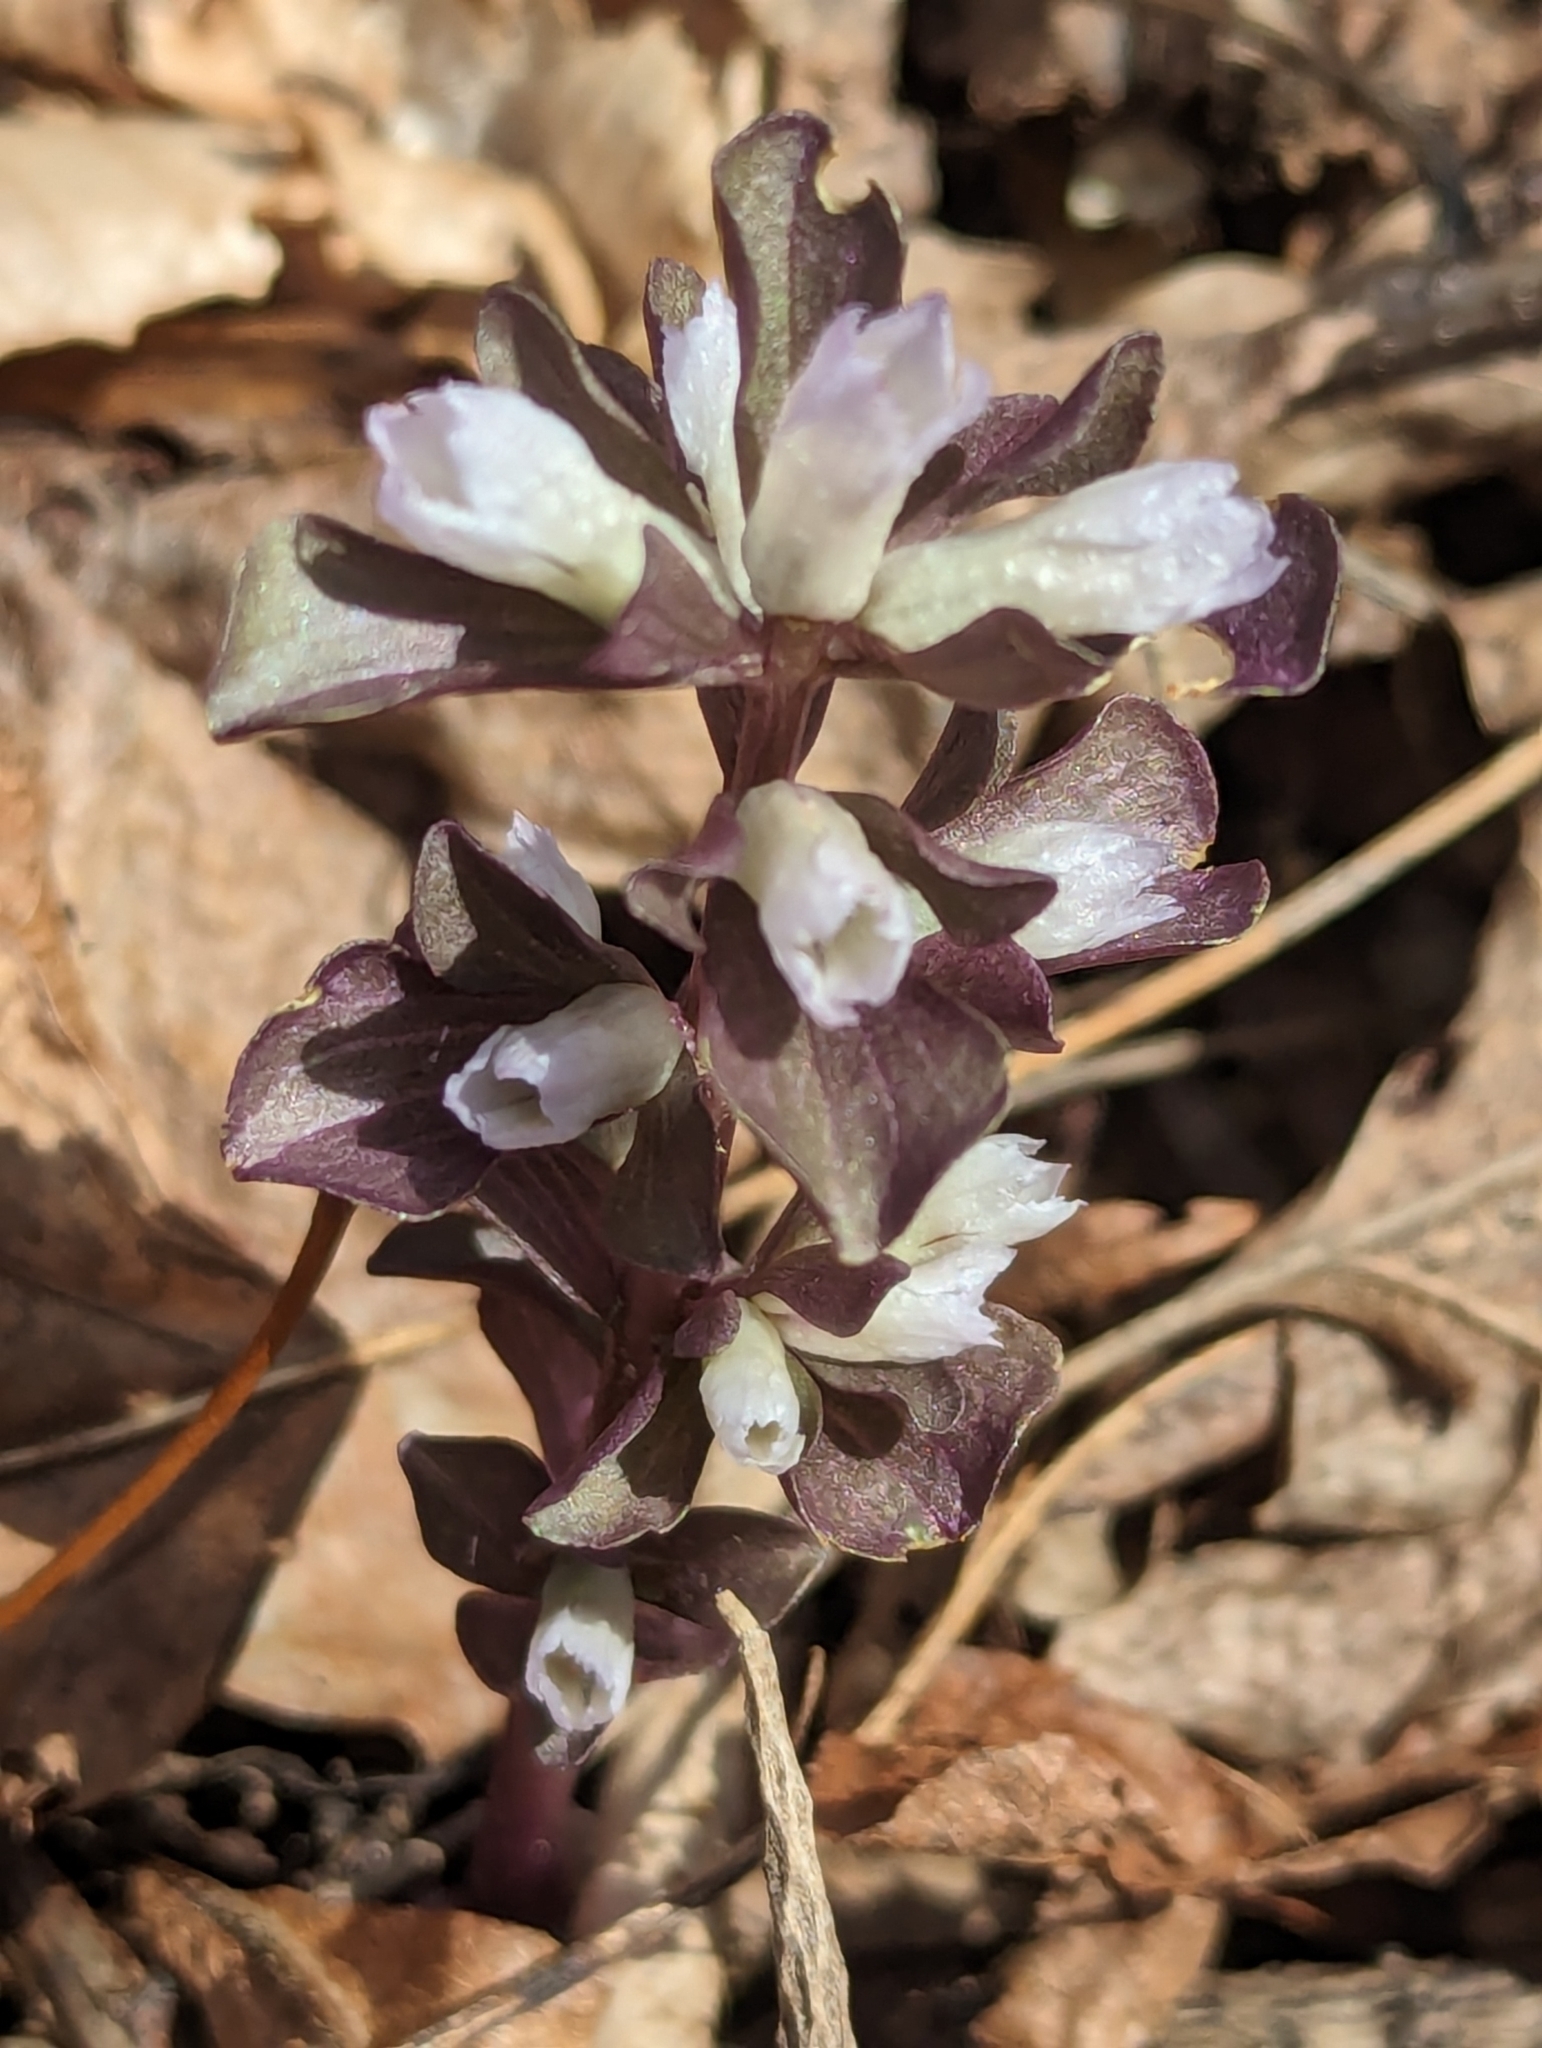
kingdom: Plantae
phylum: Tracheophyta
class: Magnoliopsida
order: Gentianales
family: Gentianaceae
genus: Obolaria
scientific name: Obolaria virginica
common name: Pennywort
